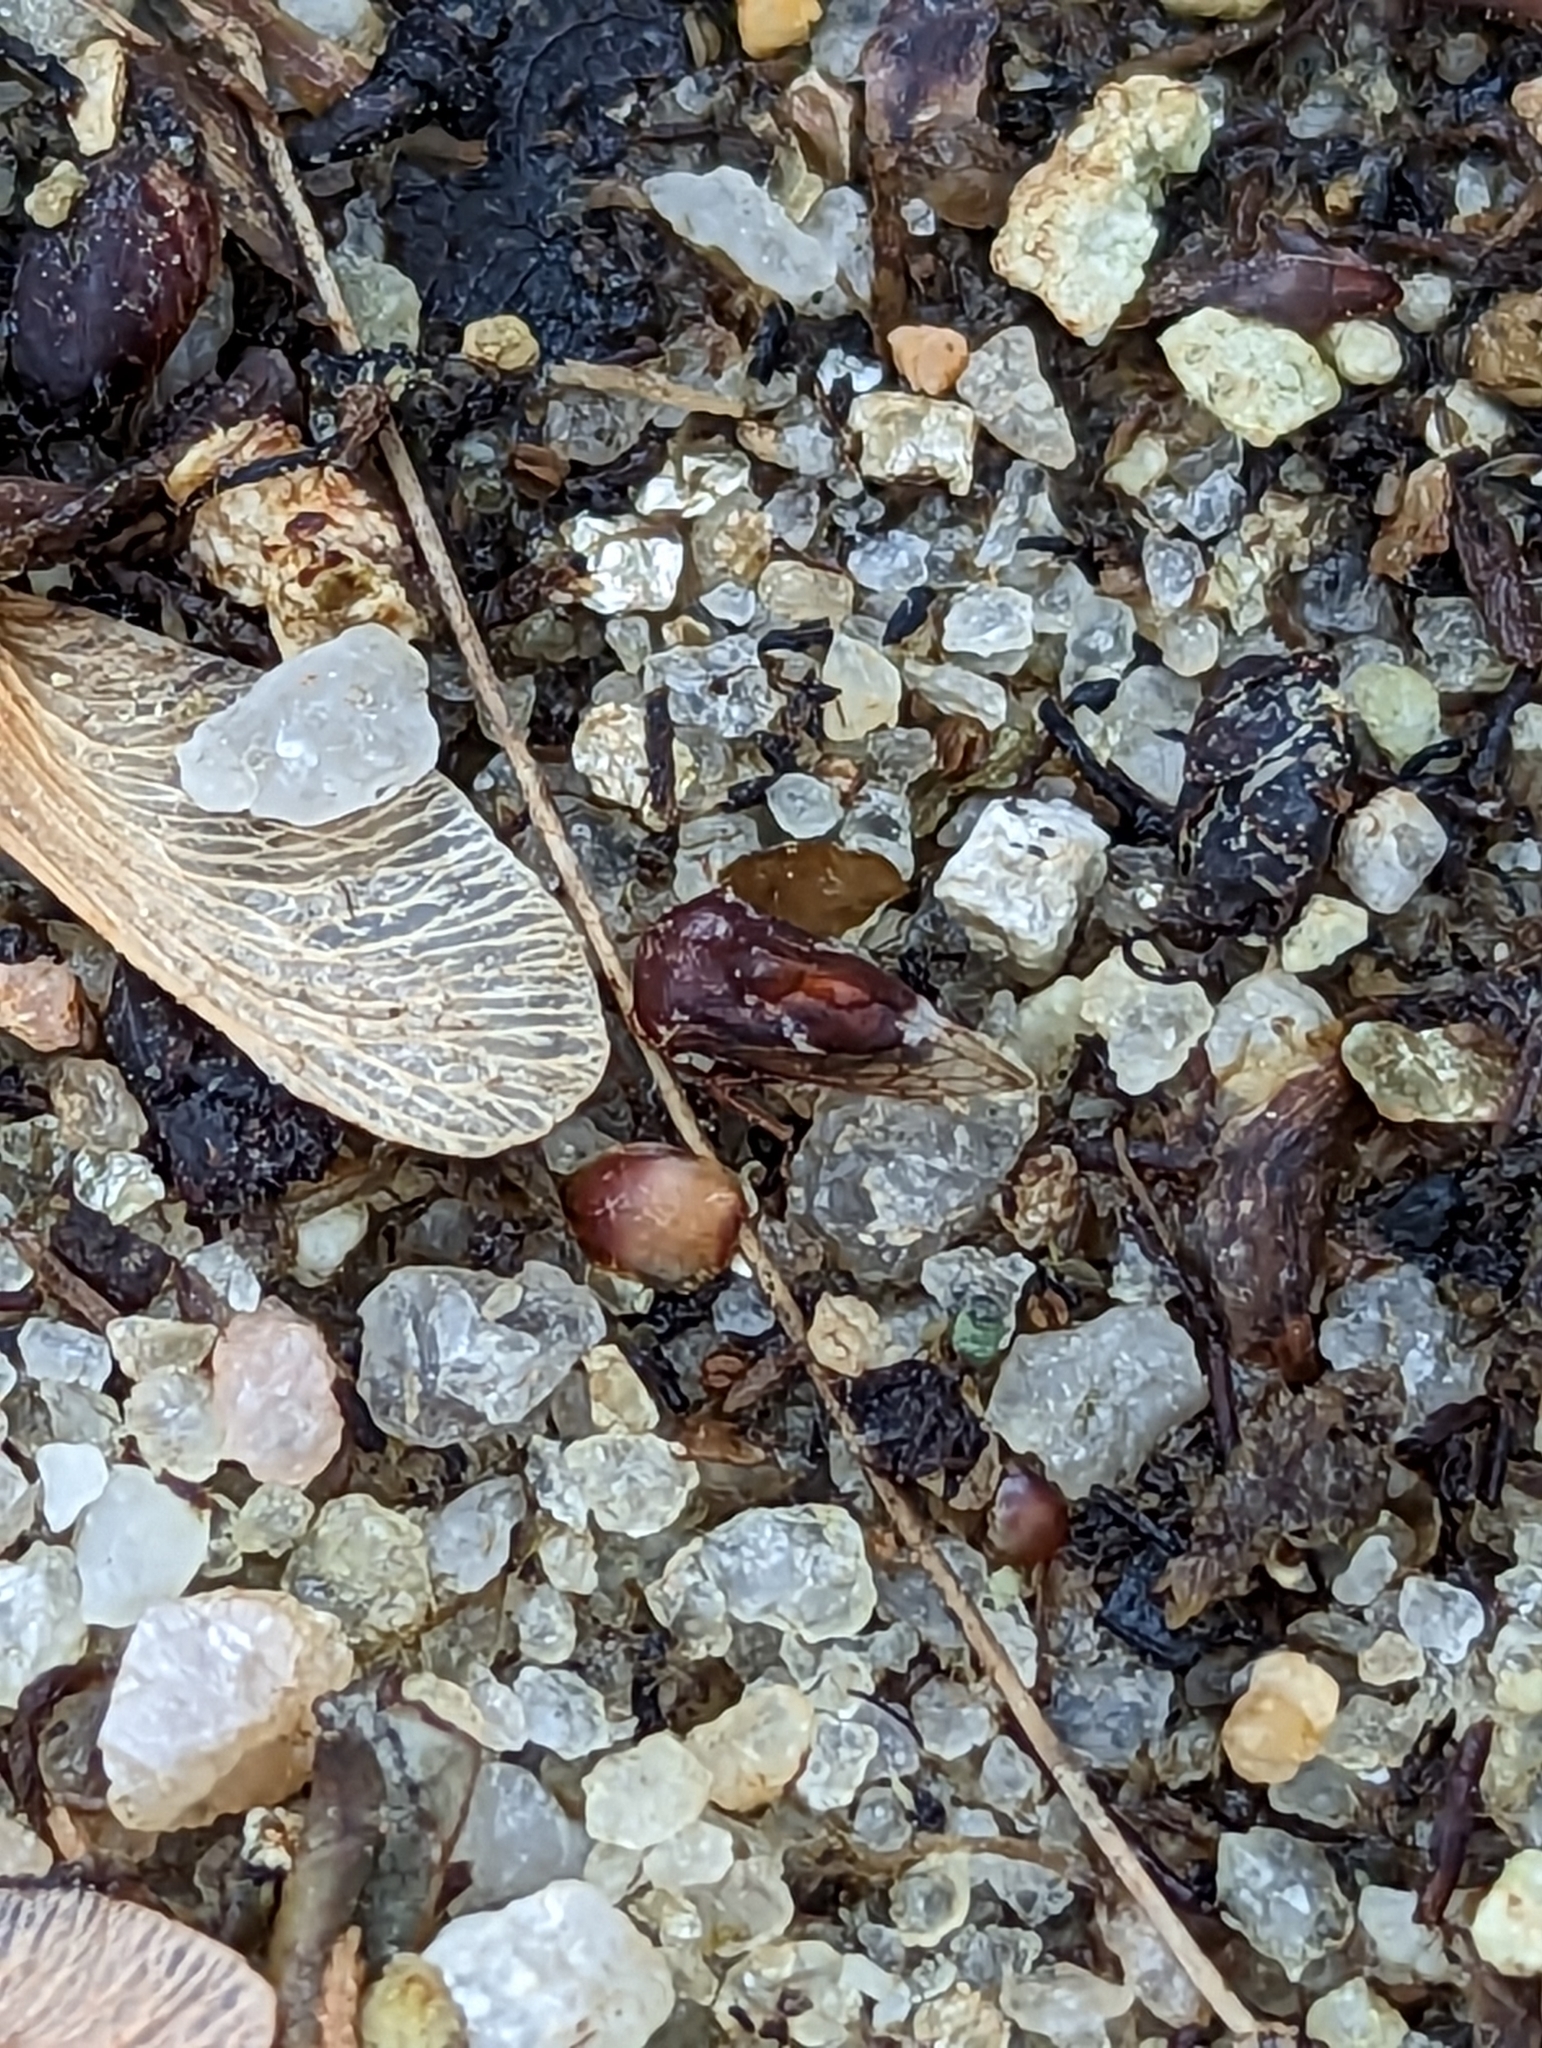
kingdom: Animalia
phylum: Arthropoda
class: Insecta
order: Hemiptera
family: Membracidae
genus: Xantholobus
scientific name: Xantholobus mutica
